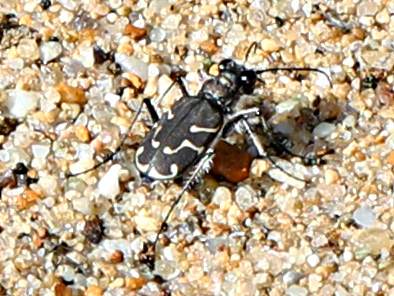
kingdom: Animalia
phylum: Arthropoda
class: Insecta
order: Coleoptera
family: Carabidae
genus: Cicindela
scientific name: Cicindela tranquebarica
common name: Oblique-lined tiger beetle
